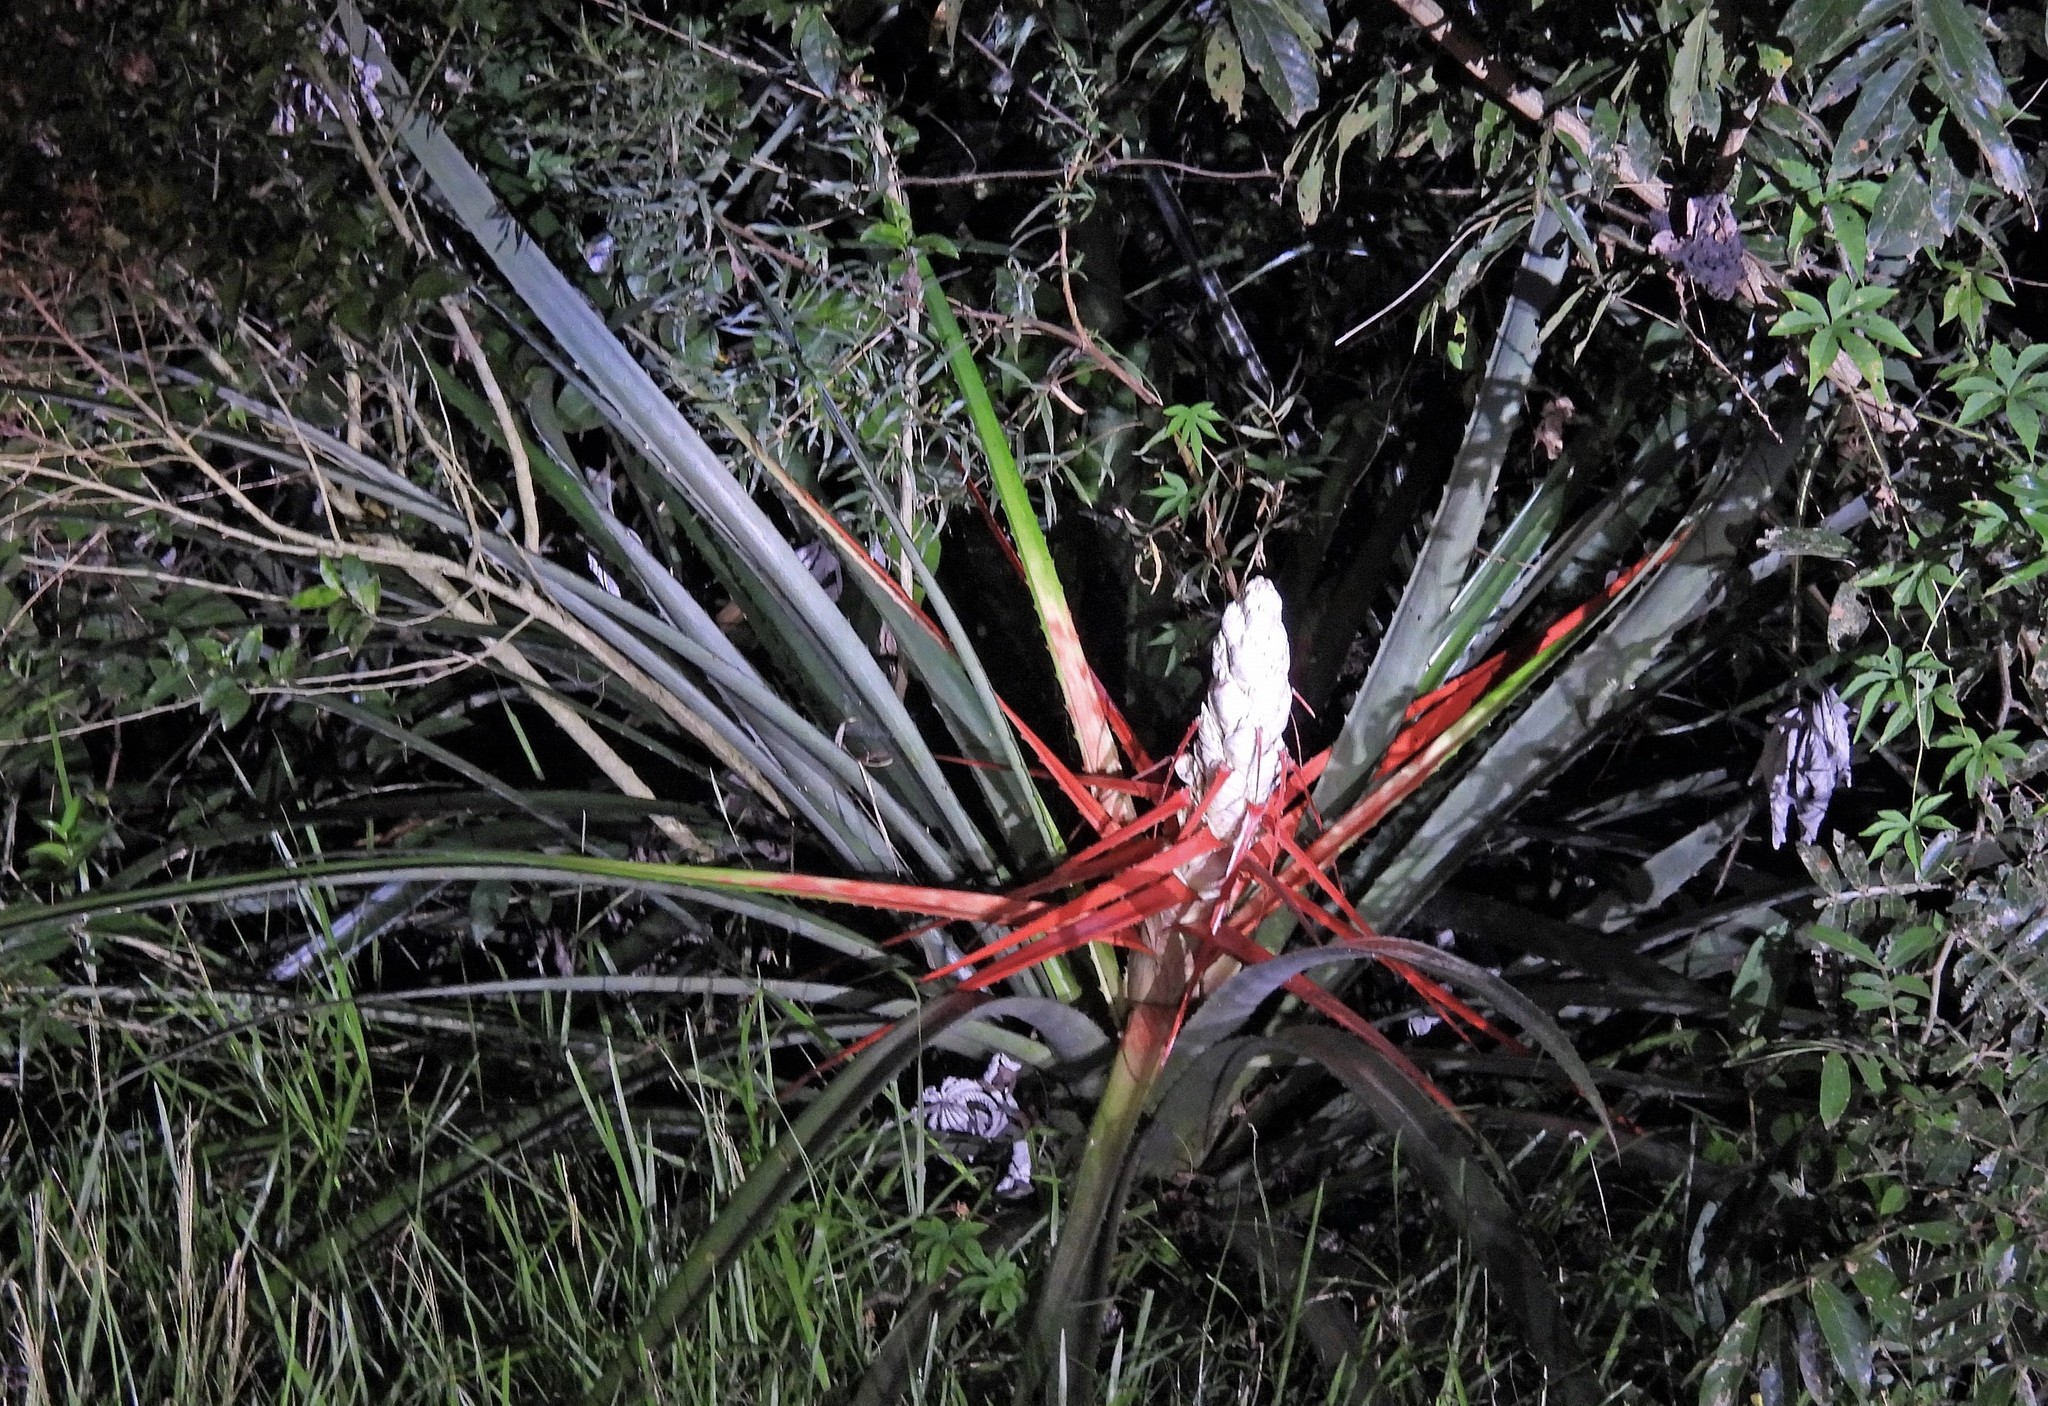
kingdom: Plantae
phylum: Tracheophyta
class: Liliopsida
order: Poales
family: Bromeliaceae
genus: Bromelia
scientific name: Bromelia balansae
